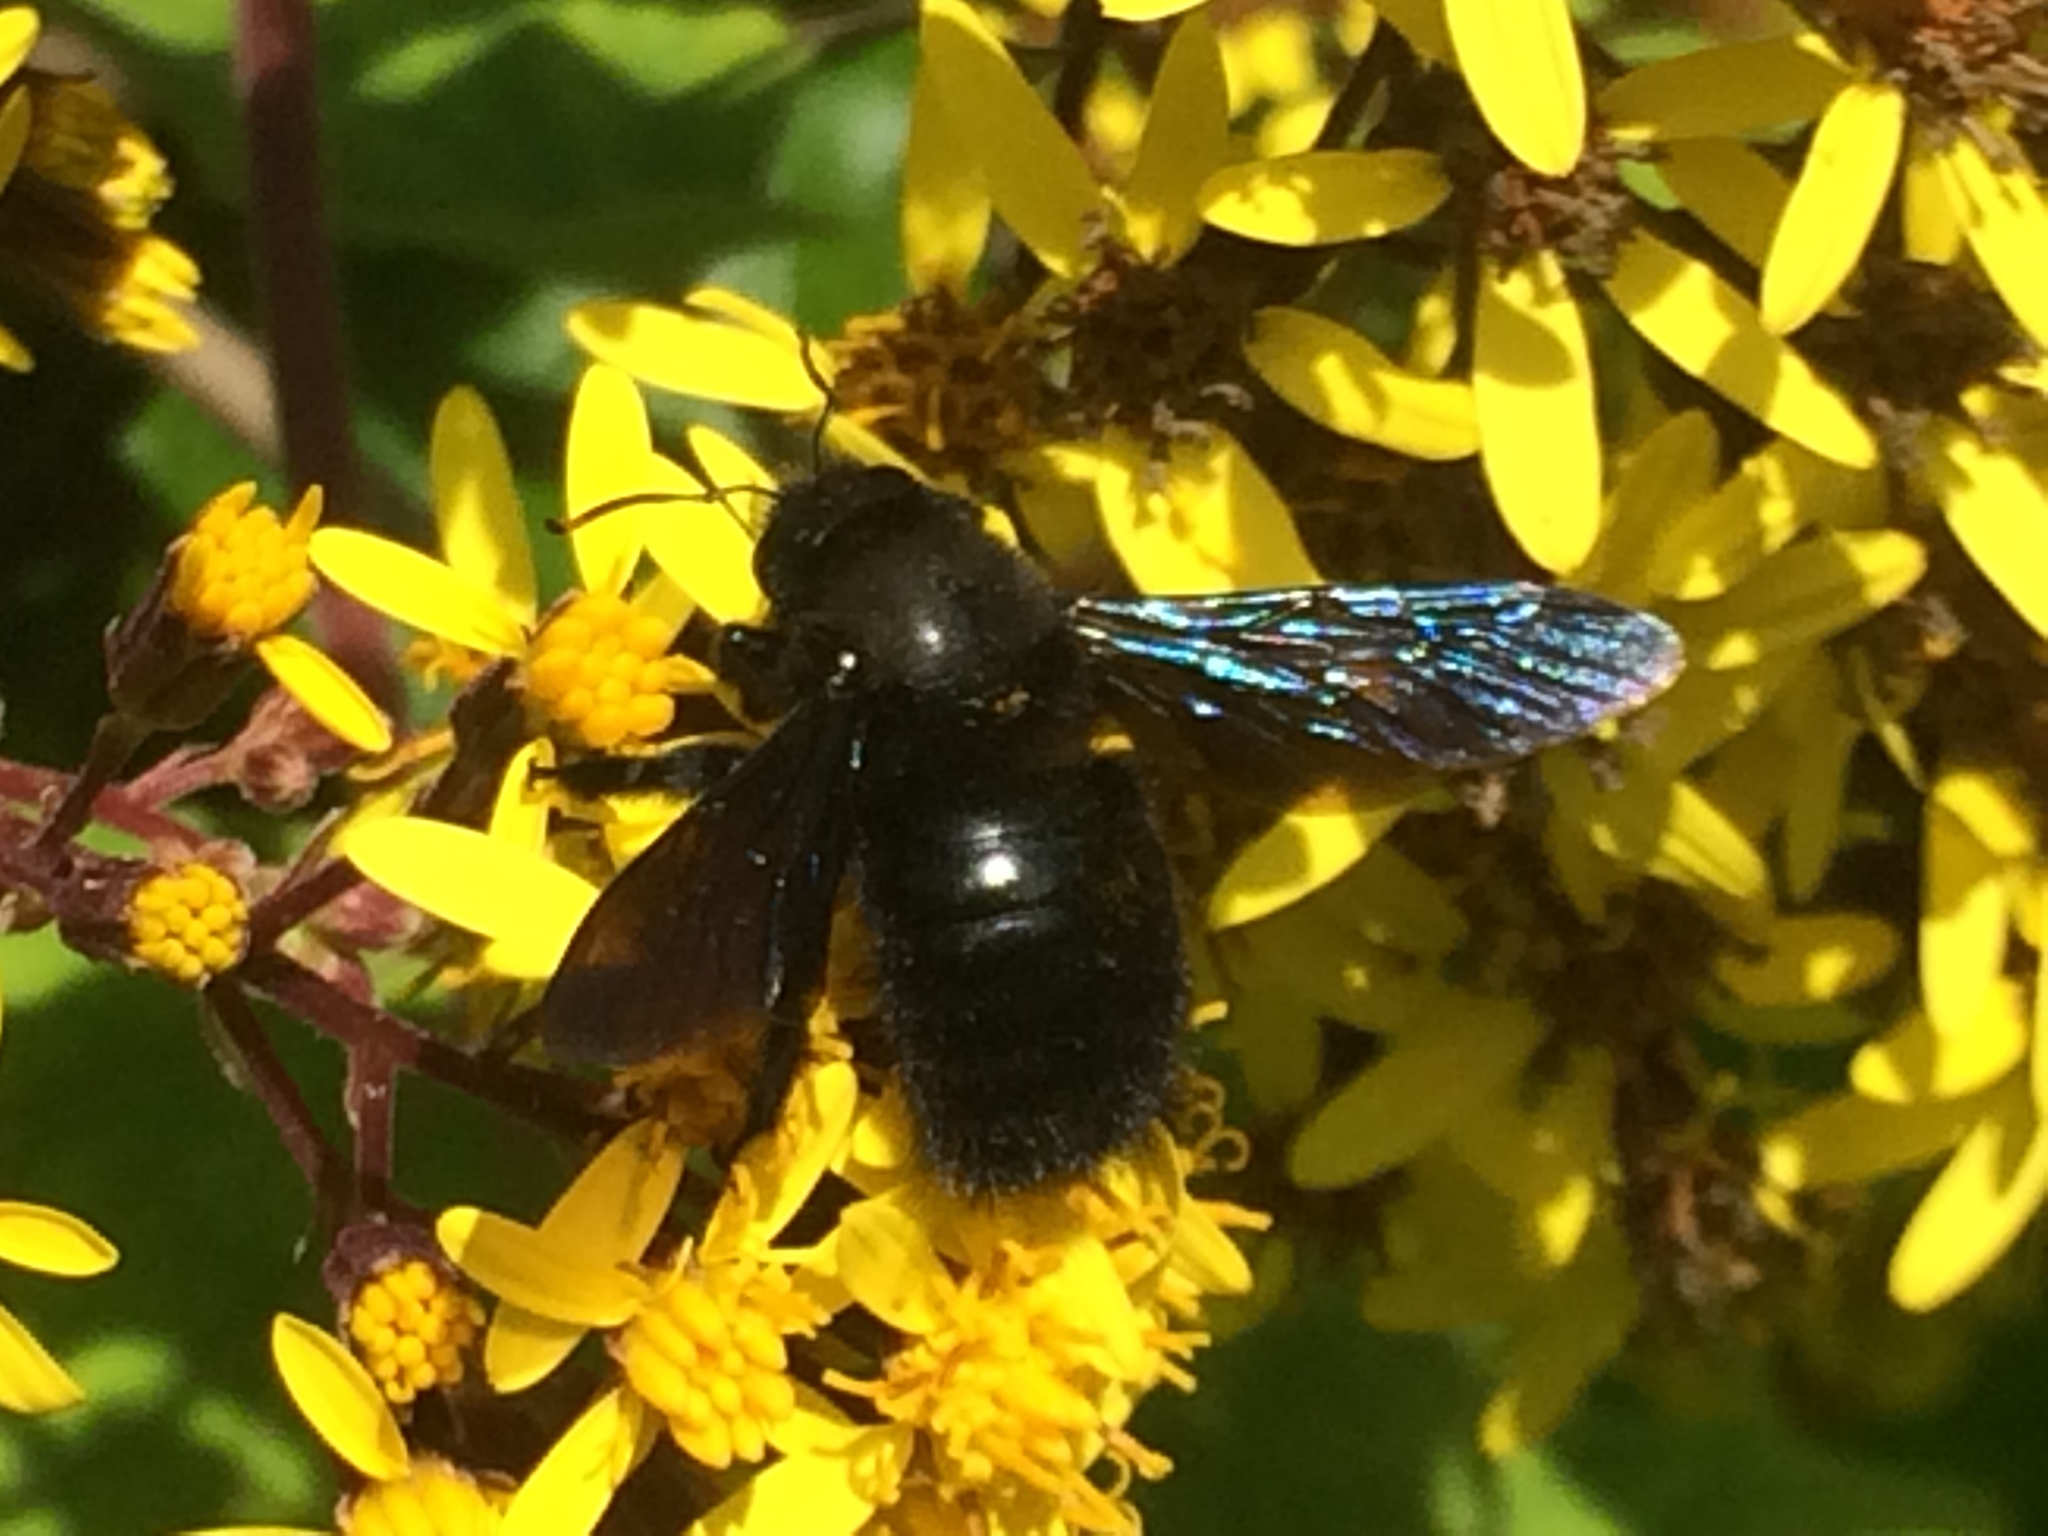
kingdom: Animalia
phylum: Arthropoda
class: Insecta
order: Hymenoptera
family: Apidae
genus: Xylocopa
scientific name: Xylocopa violacea
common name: Violet carpenter bee
